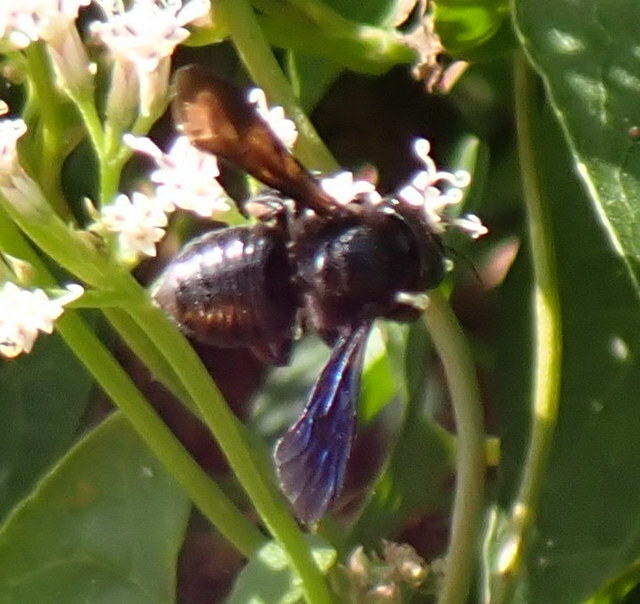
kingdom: Animalia
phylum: Arthropoda
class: Insecta
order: Hymenoptera
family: Megachilidae
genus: Megachile
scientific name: Megachile xylocopoides
